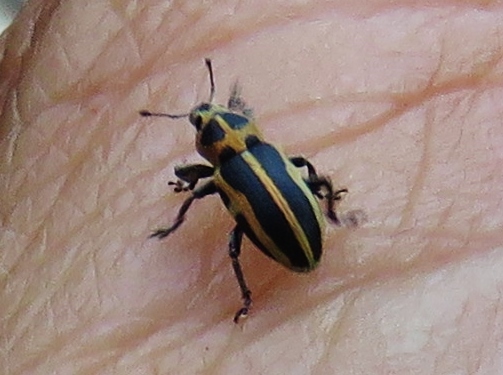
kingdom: Animalia
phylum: Arthropoda
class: Insecta
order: Coleoptera
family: Curculionidae
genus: Eudiagogus
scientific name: Eudiagogus pulcher
